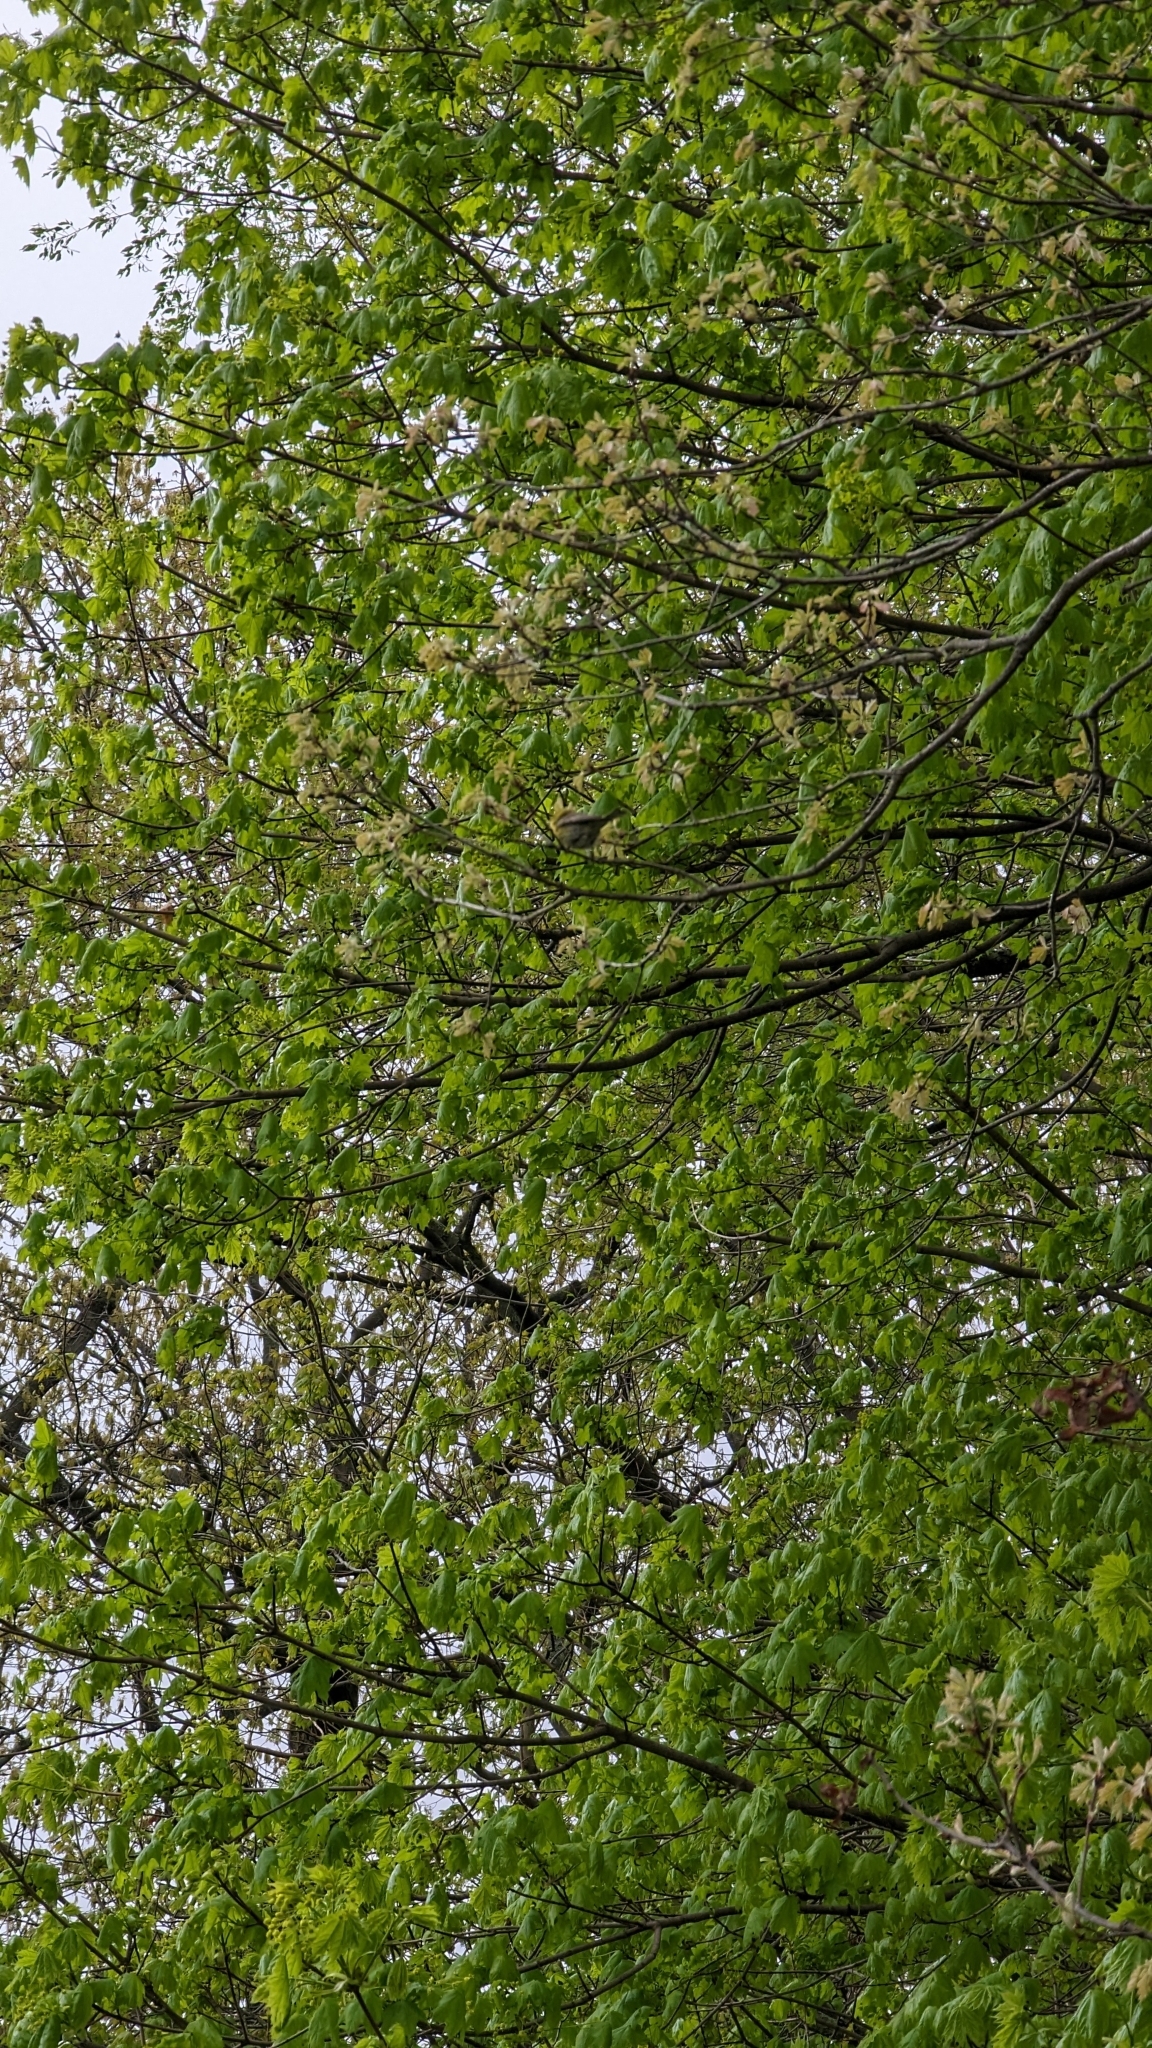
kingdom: Animalia
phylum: Chordata
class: Aves
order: Passeriformes
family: Parulidae
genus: Setophaga
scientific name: Setophaga pinus
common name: Pine warbler
